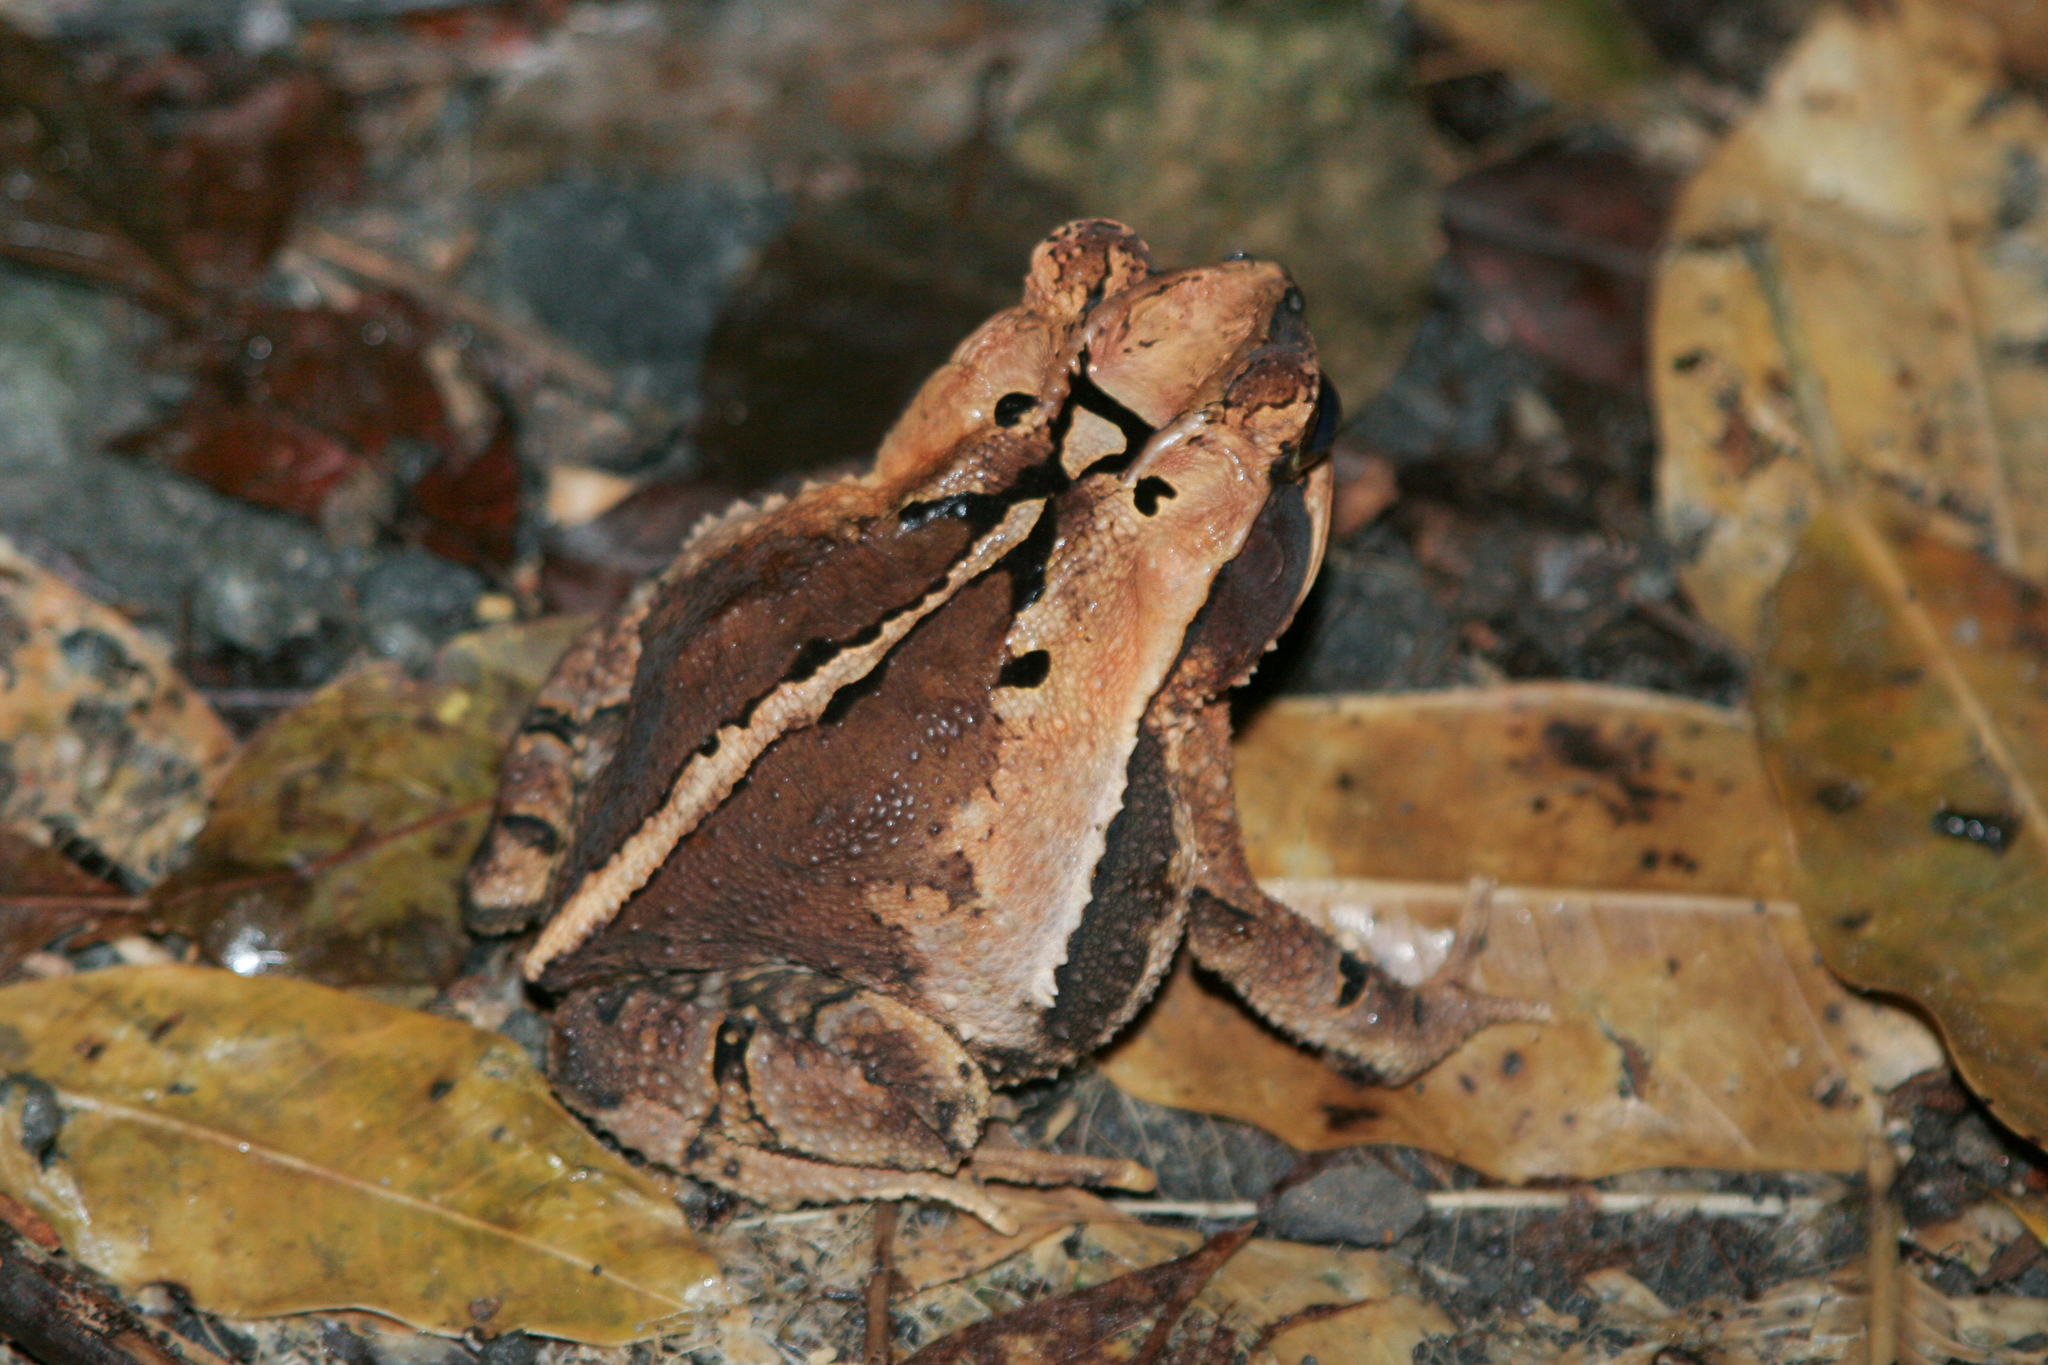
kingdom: Animalia
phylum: Chordata
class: Amphibia
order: Anura
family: Bufonidae
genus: Incilius
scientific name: Incilius cavifrons
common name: Mountain toad
